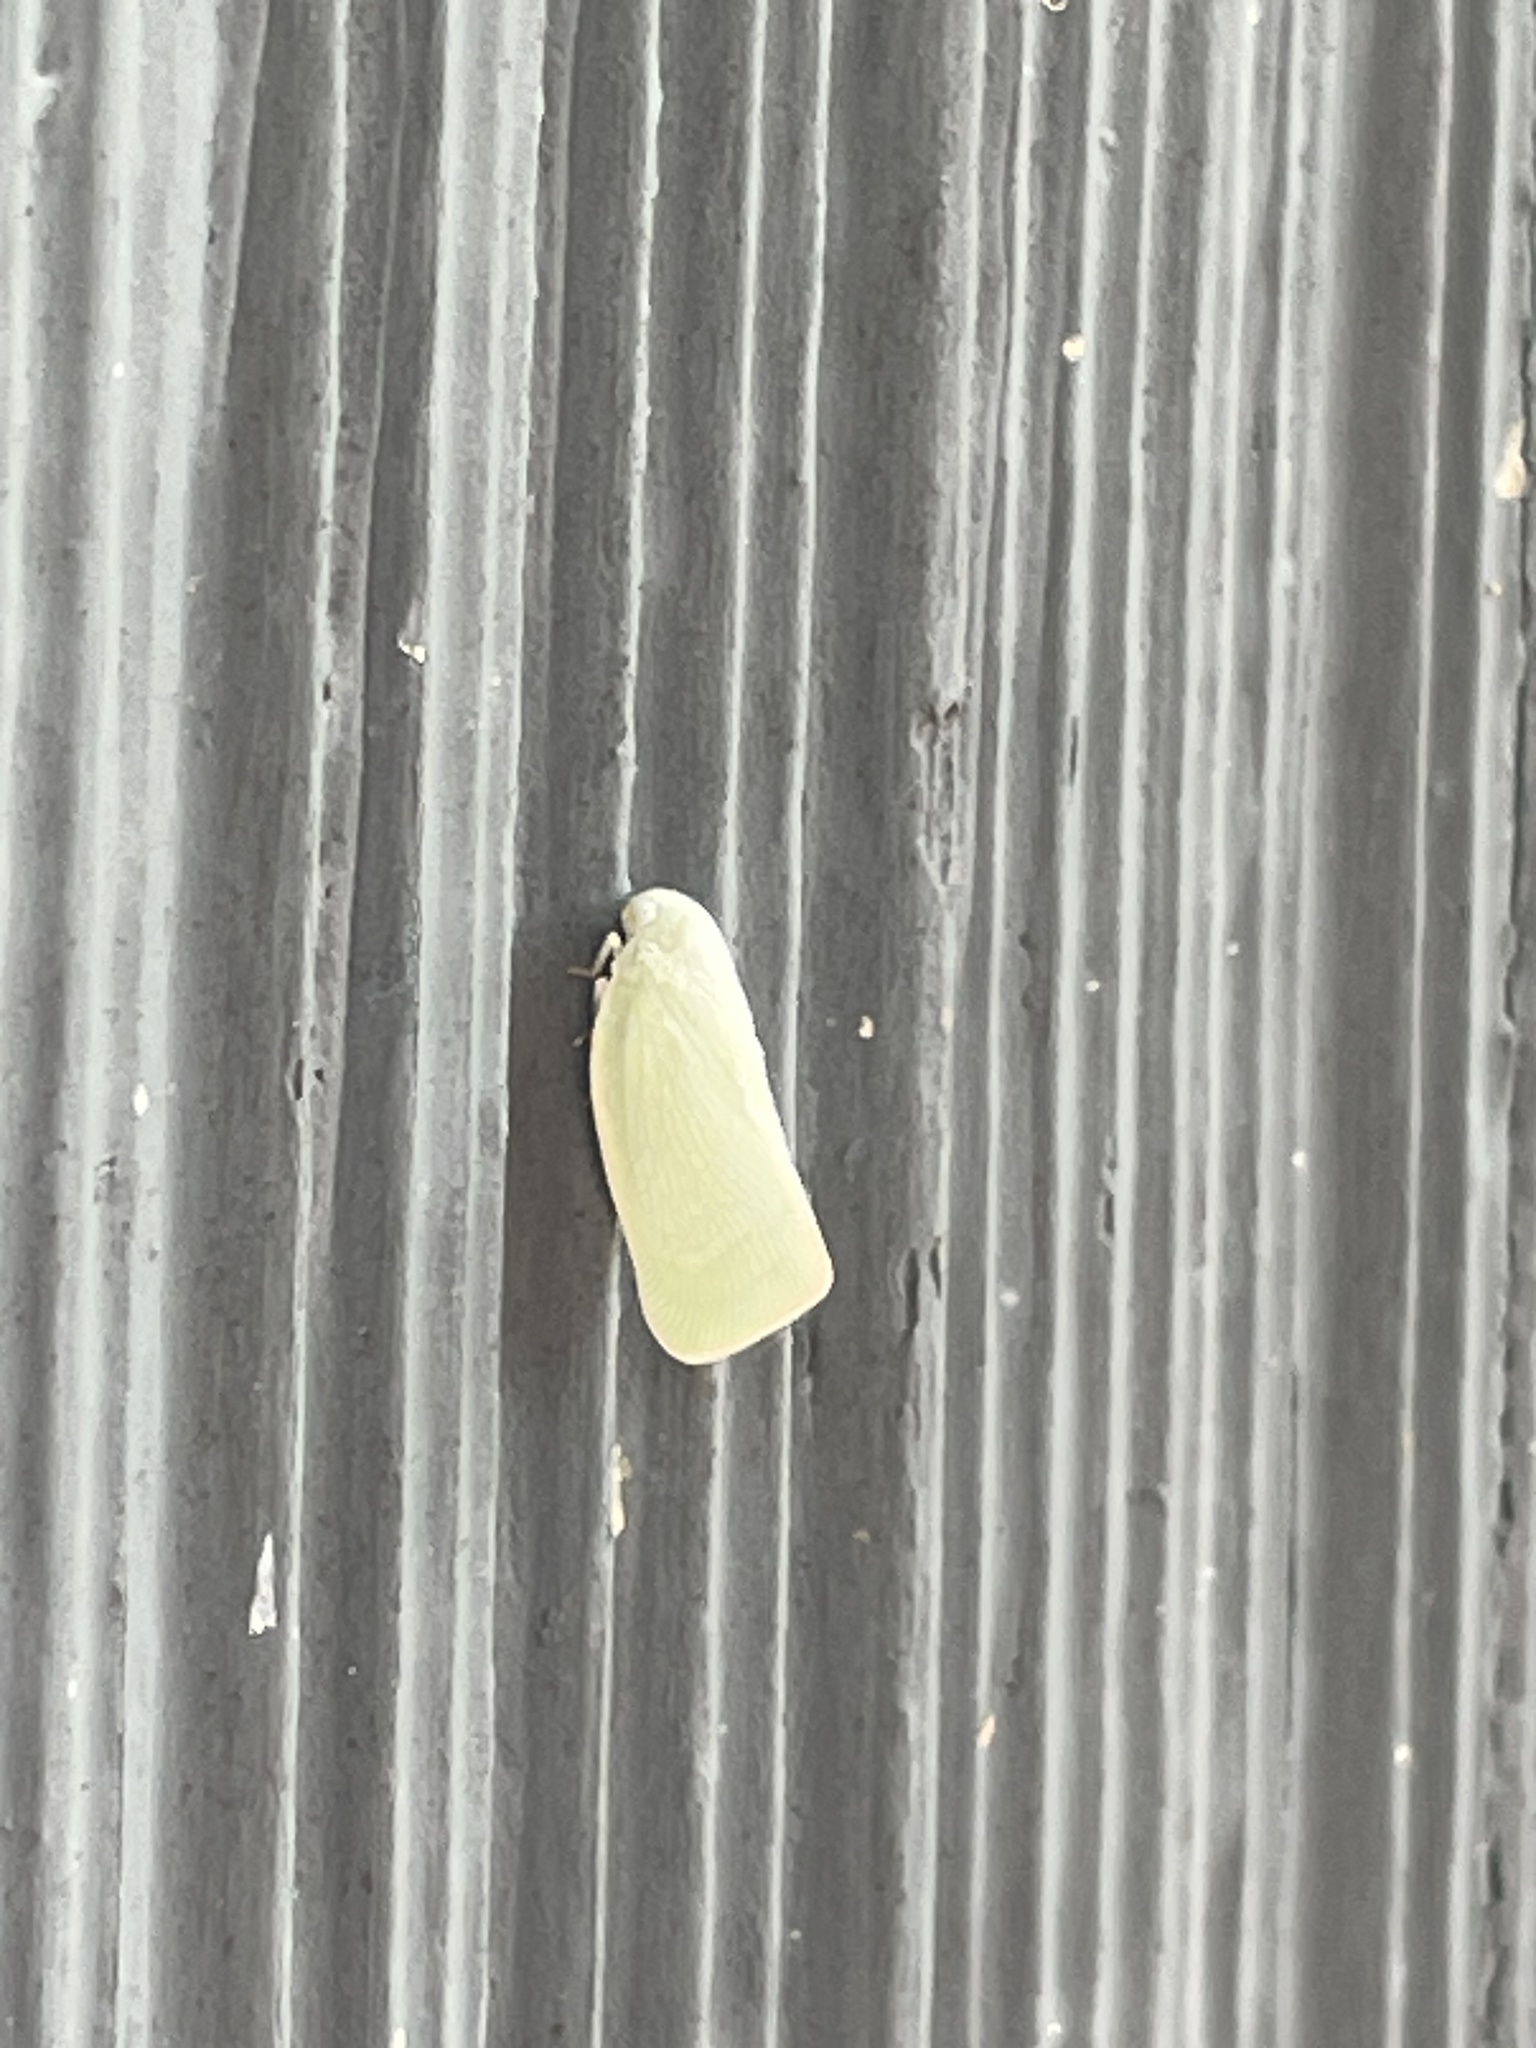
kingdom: Animalia
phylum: Arthropoda
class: Insecta
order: Hemiptera
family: Flatidae
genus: Flatormenis
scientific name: Flatormenis proxima
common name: Northern flatid planthopper
